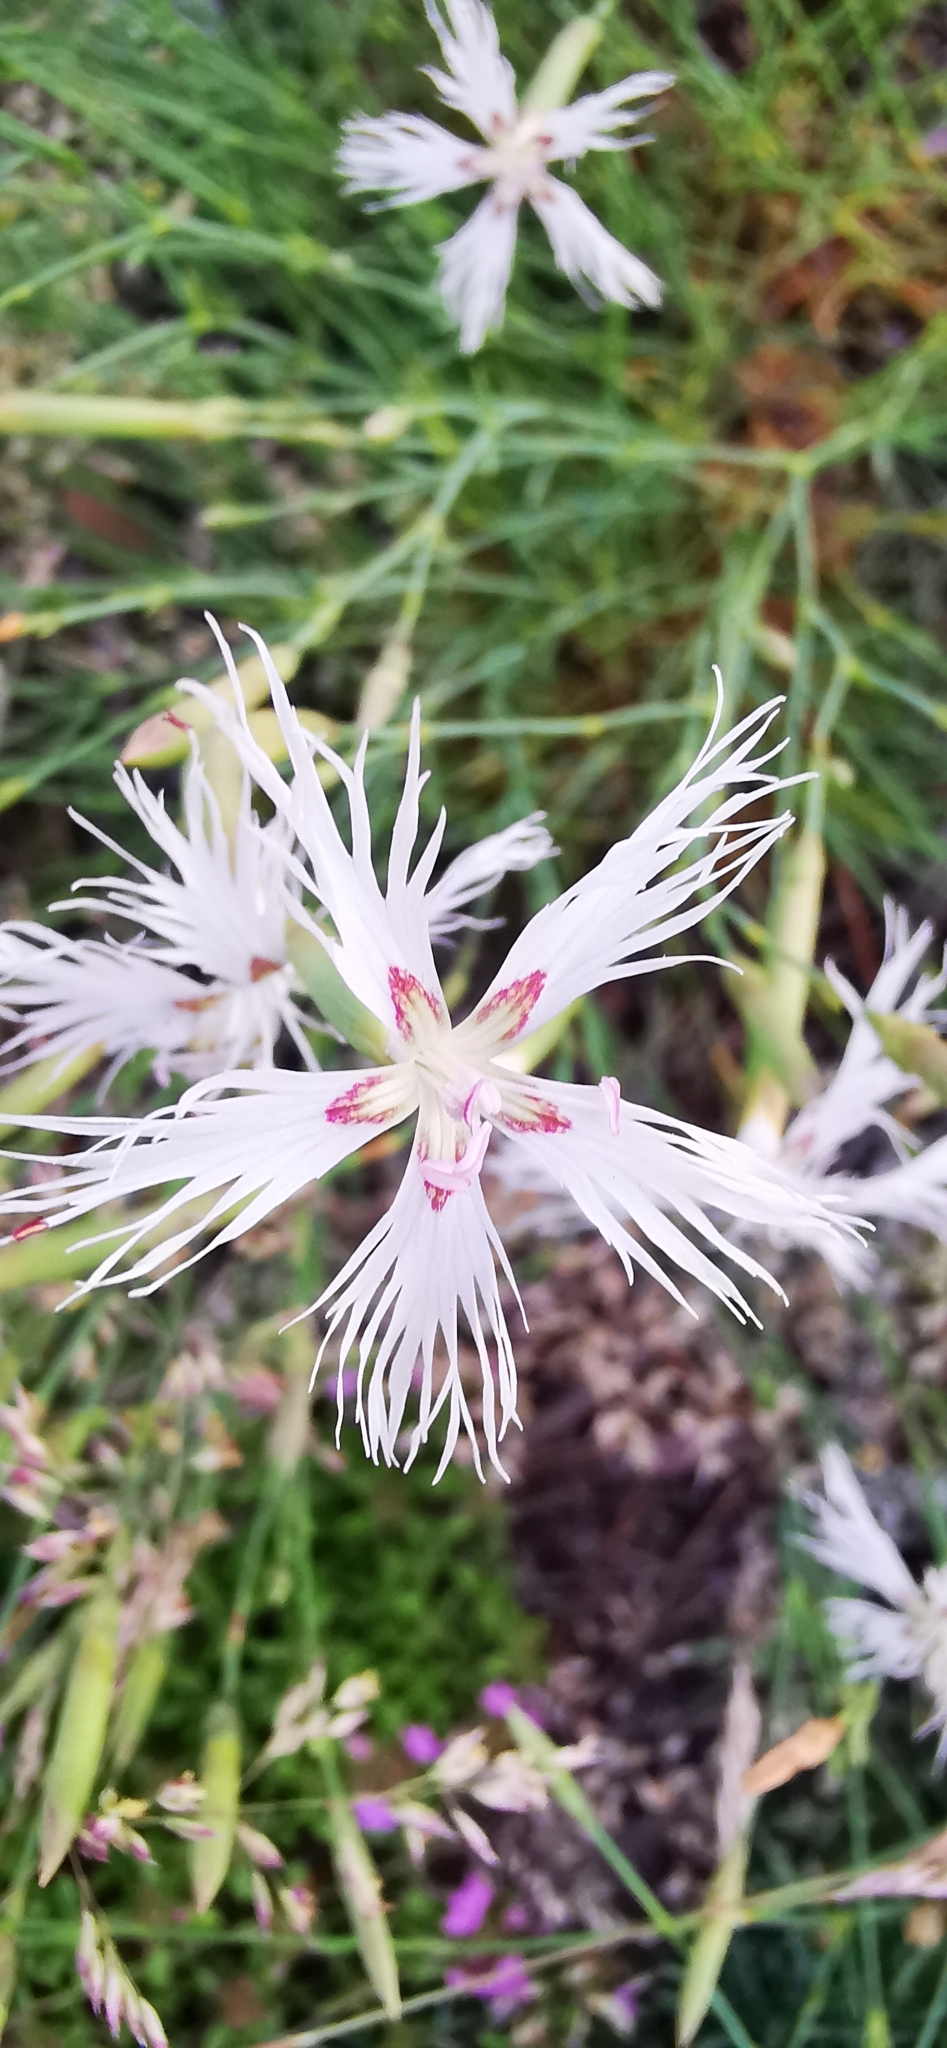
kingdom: Plantae
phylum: Tracheophyta
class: Magnoliopsida
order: Caryophyllales
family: Caryophyllaceae
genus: Dianthus
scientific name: Dianthus arenarius
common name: Stone pink
